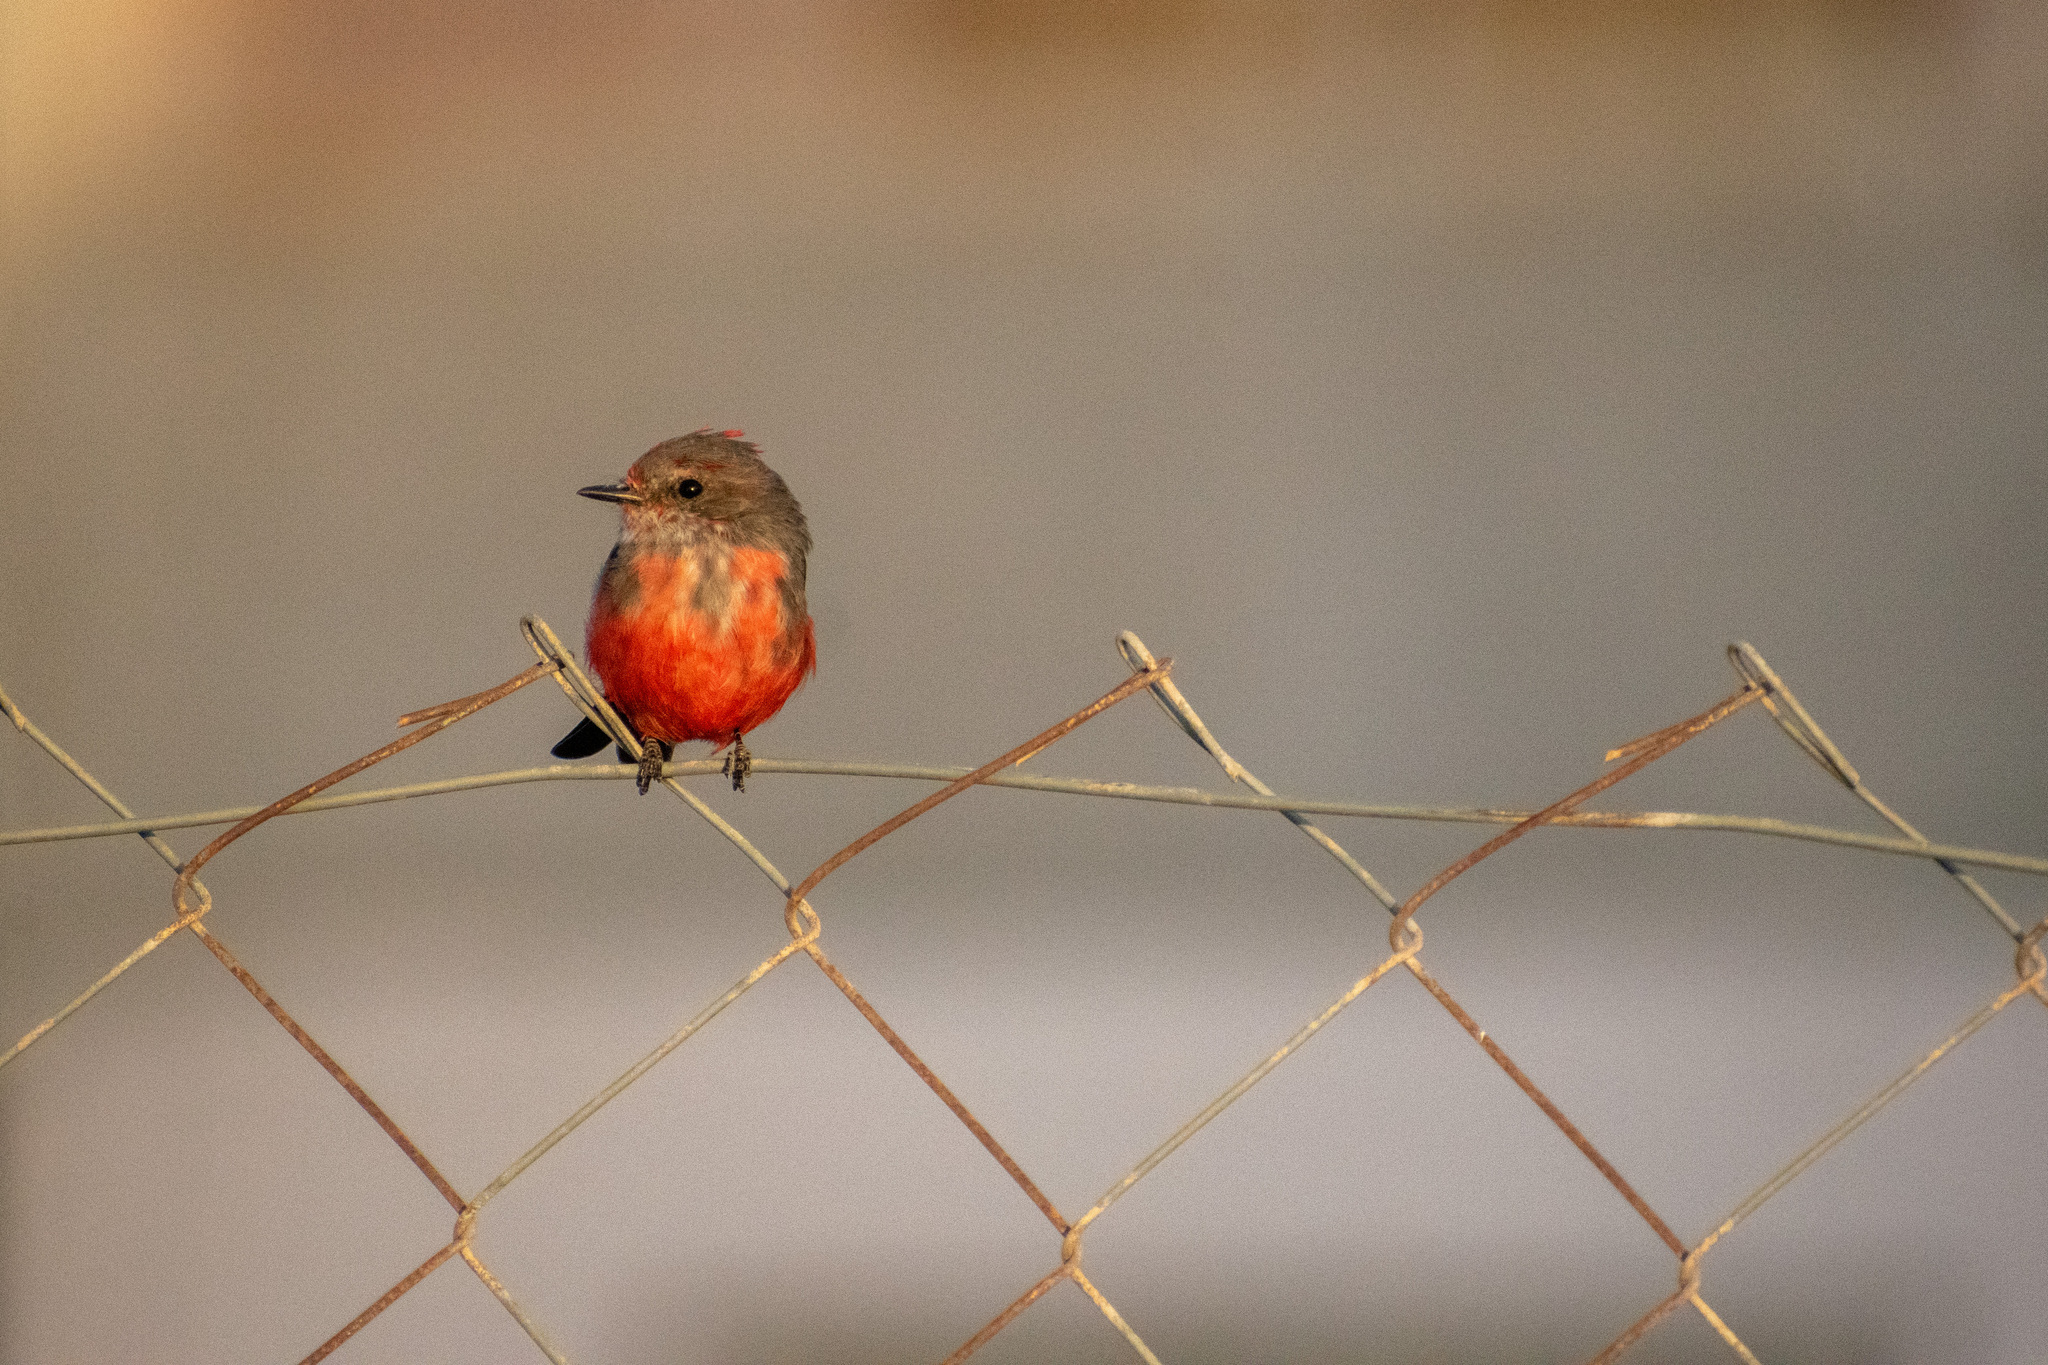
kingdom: Animalia
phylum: Chordata
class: Aves
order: Passeriformes
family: Tyrannidae
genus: Pyrocephalus
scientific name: Pyrocephalus rubinus
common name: Vermilion flycatcher
